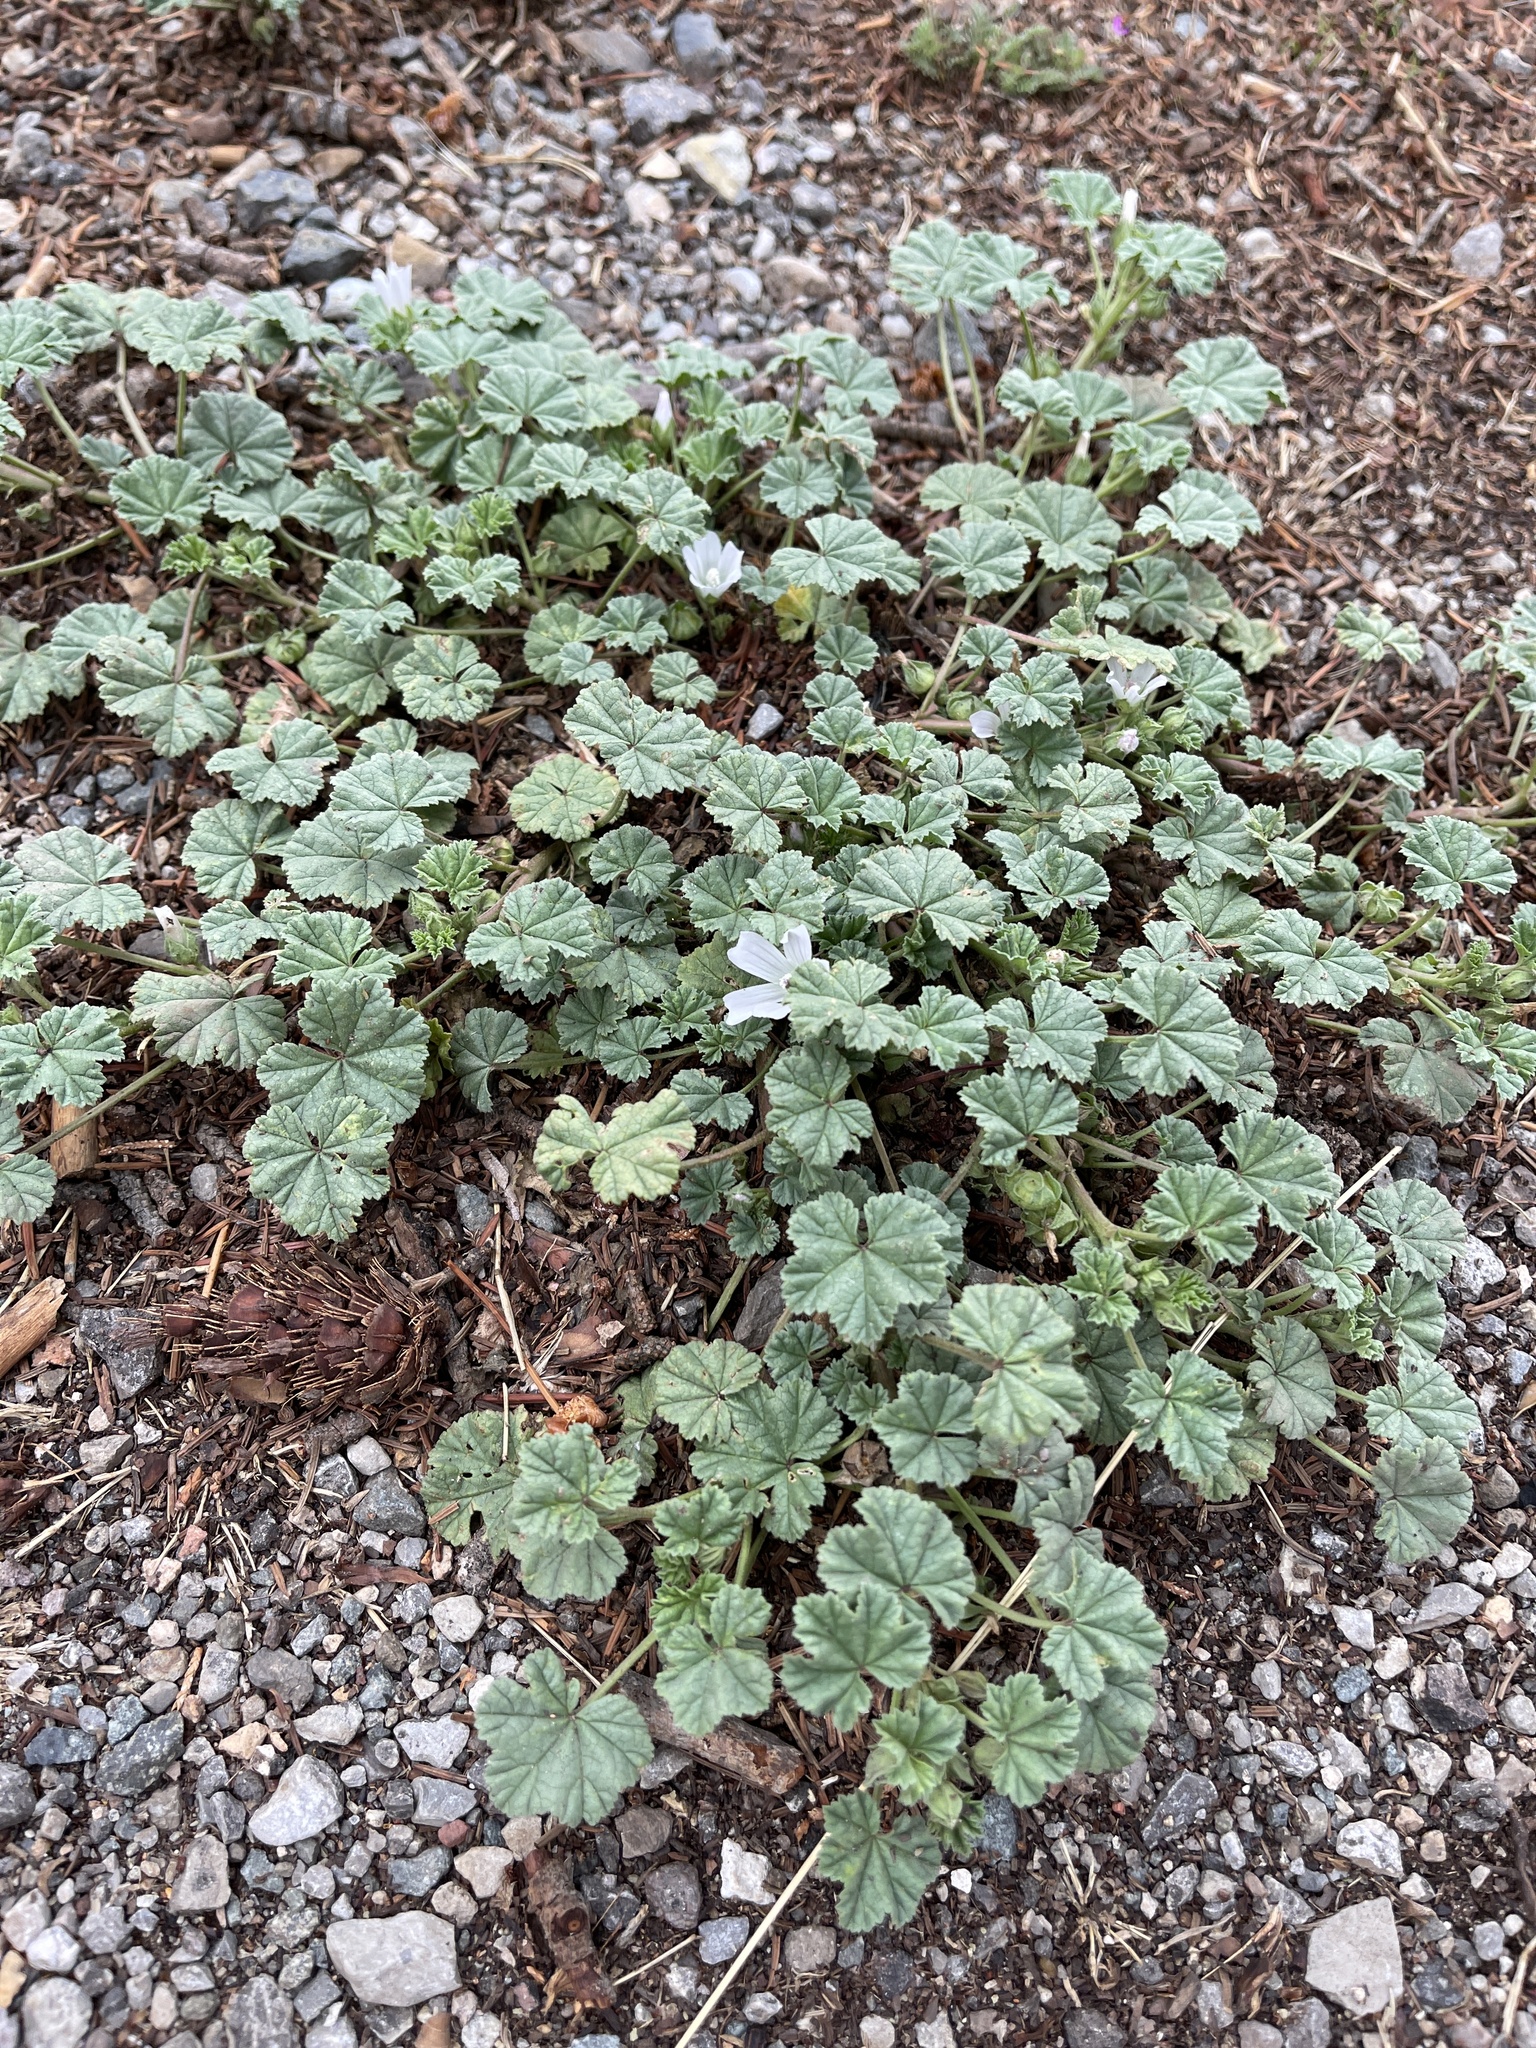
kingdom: Plantae
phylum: Tracheophyta
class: Magnoliopsida
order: Malvales
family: Malvaceae
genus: Malva
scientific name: Malva neglecta
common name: Common mallow
